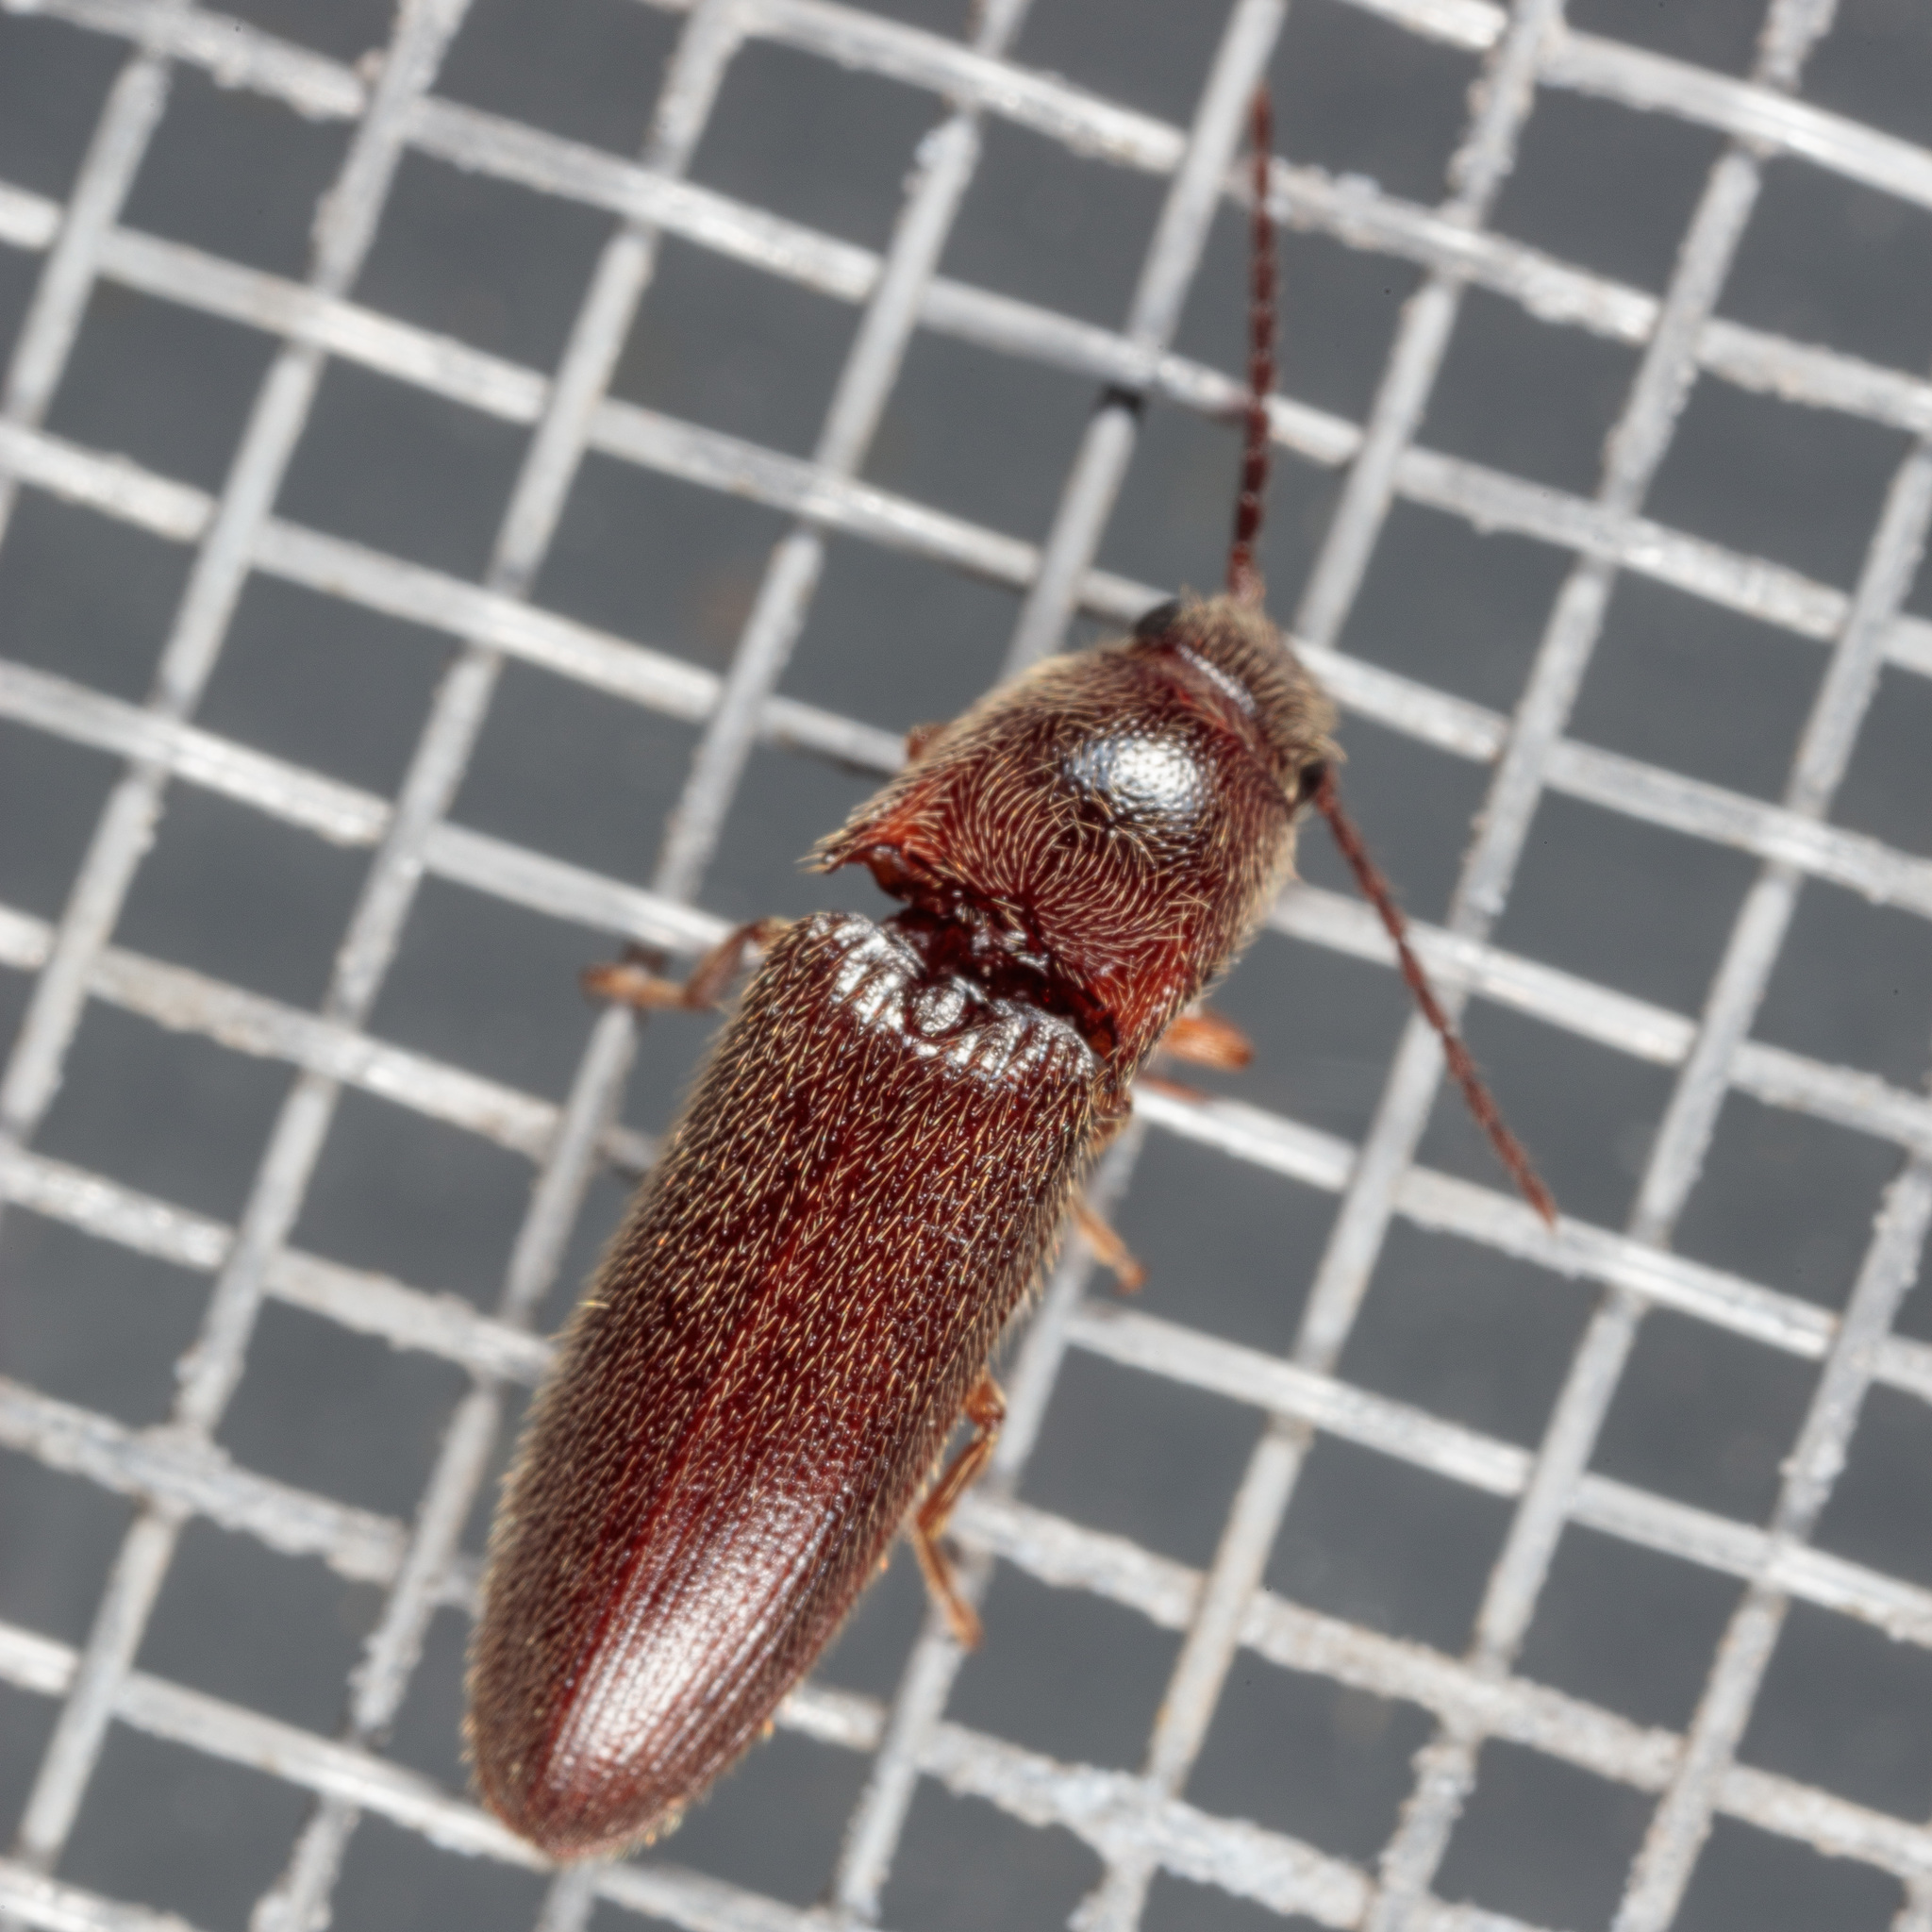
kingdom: Animalia
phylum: Arthropoda
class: Insecta
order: Coleoptera
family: Elateridae
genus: Dipropus
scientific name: Dipropus
